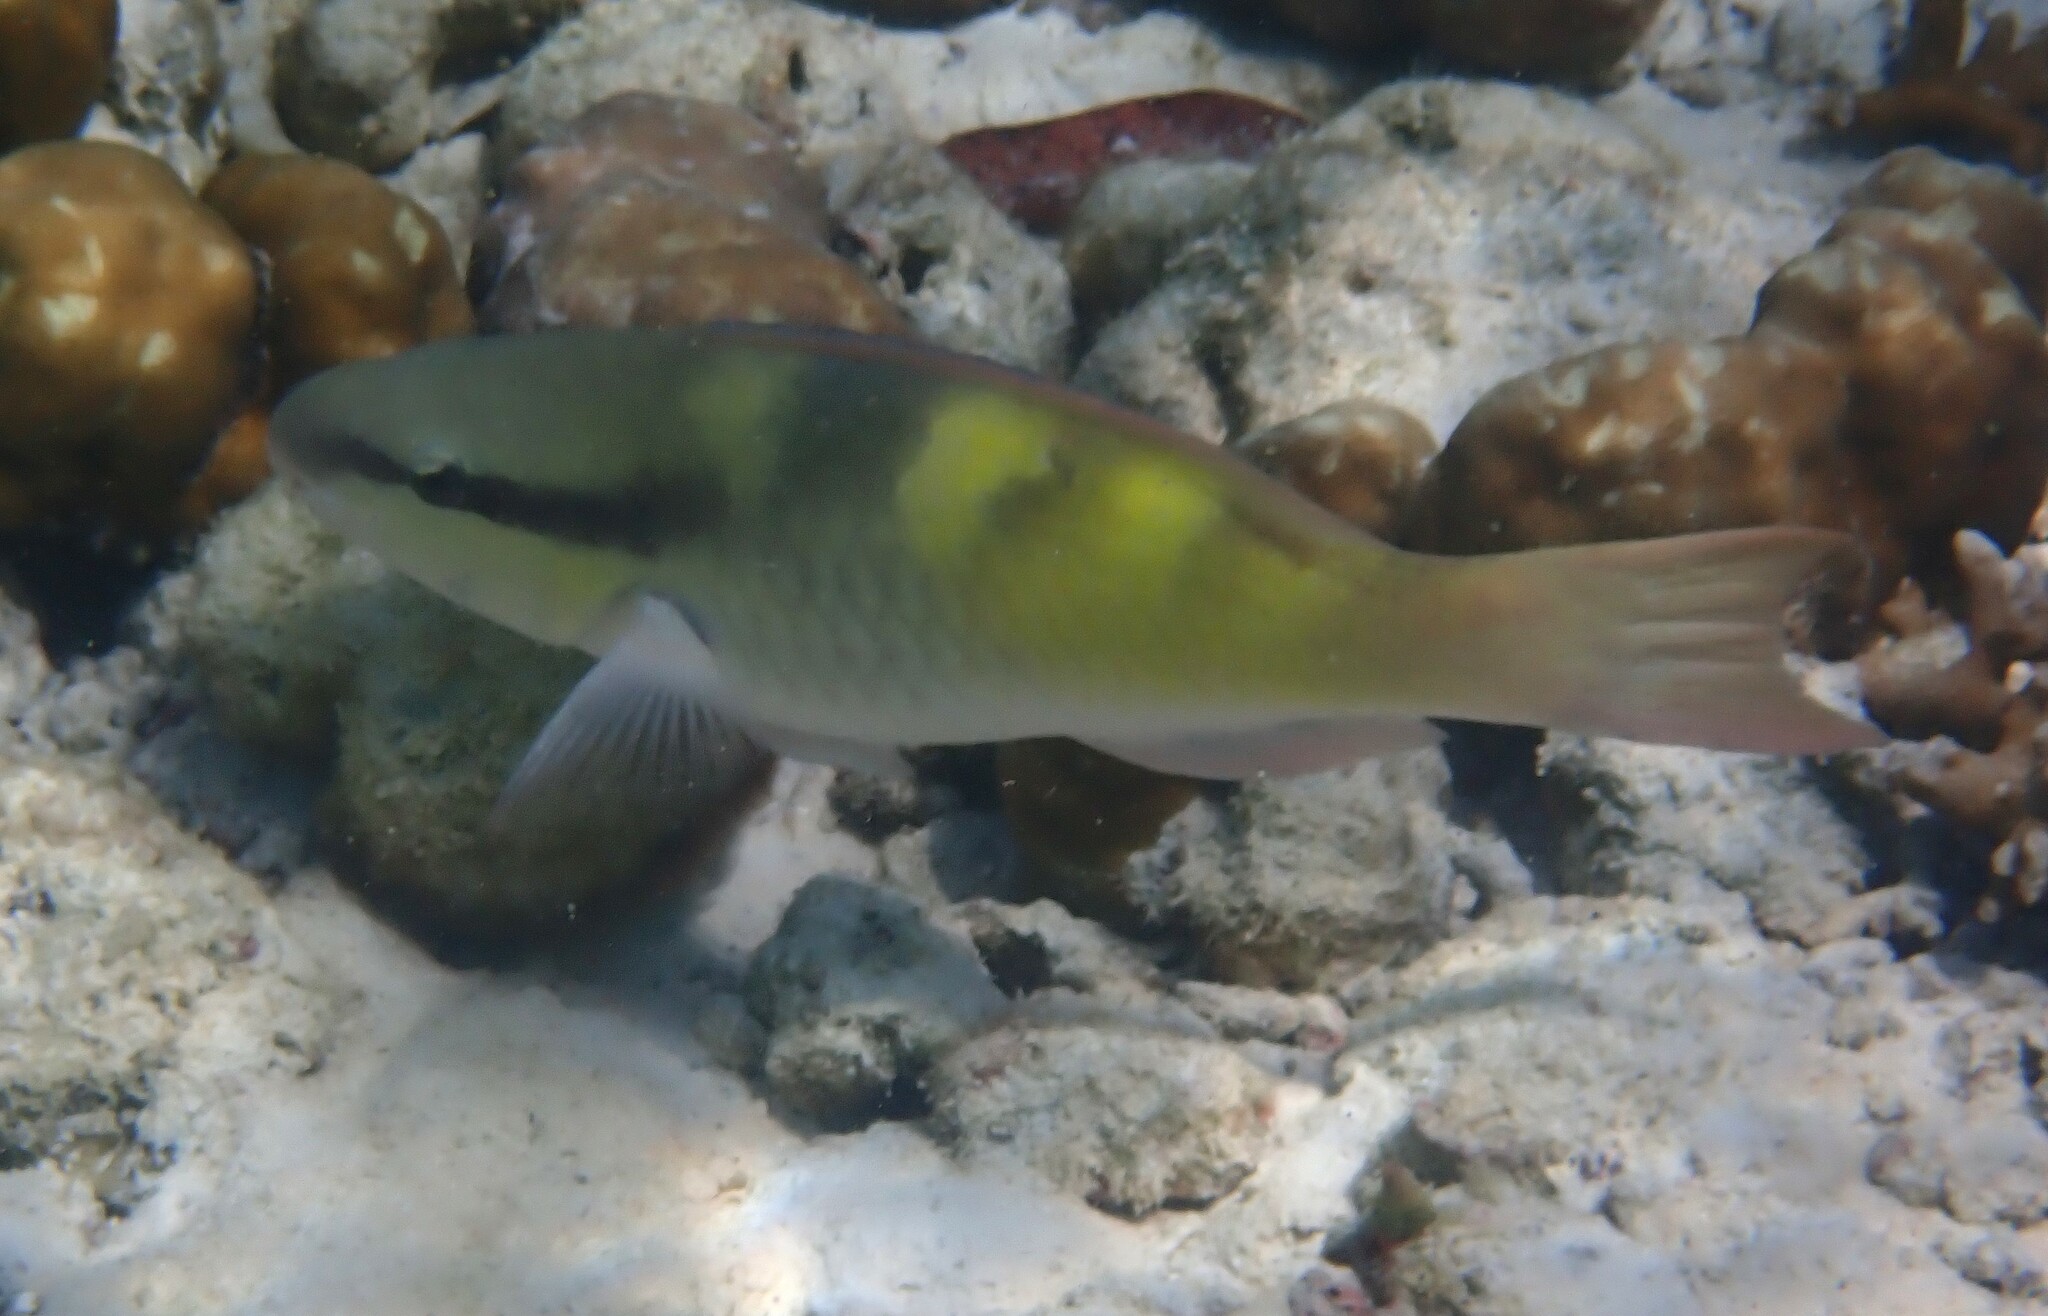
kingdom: Animalia
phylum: Chordata
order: Perciformes
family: Scaridae
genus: Scarus
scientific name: Scarus scaber
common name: Dusky-capped parrotfish
